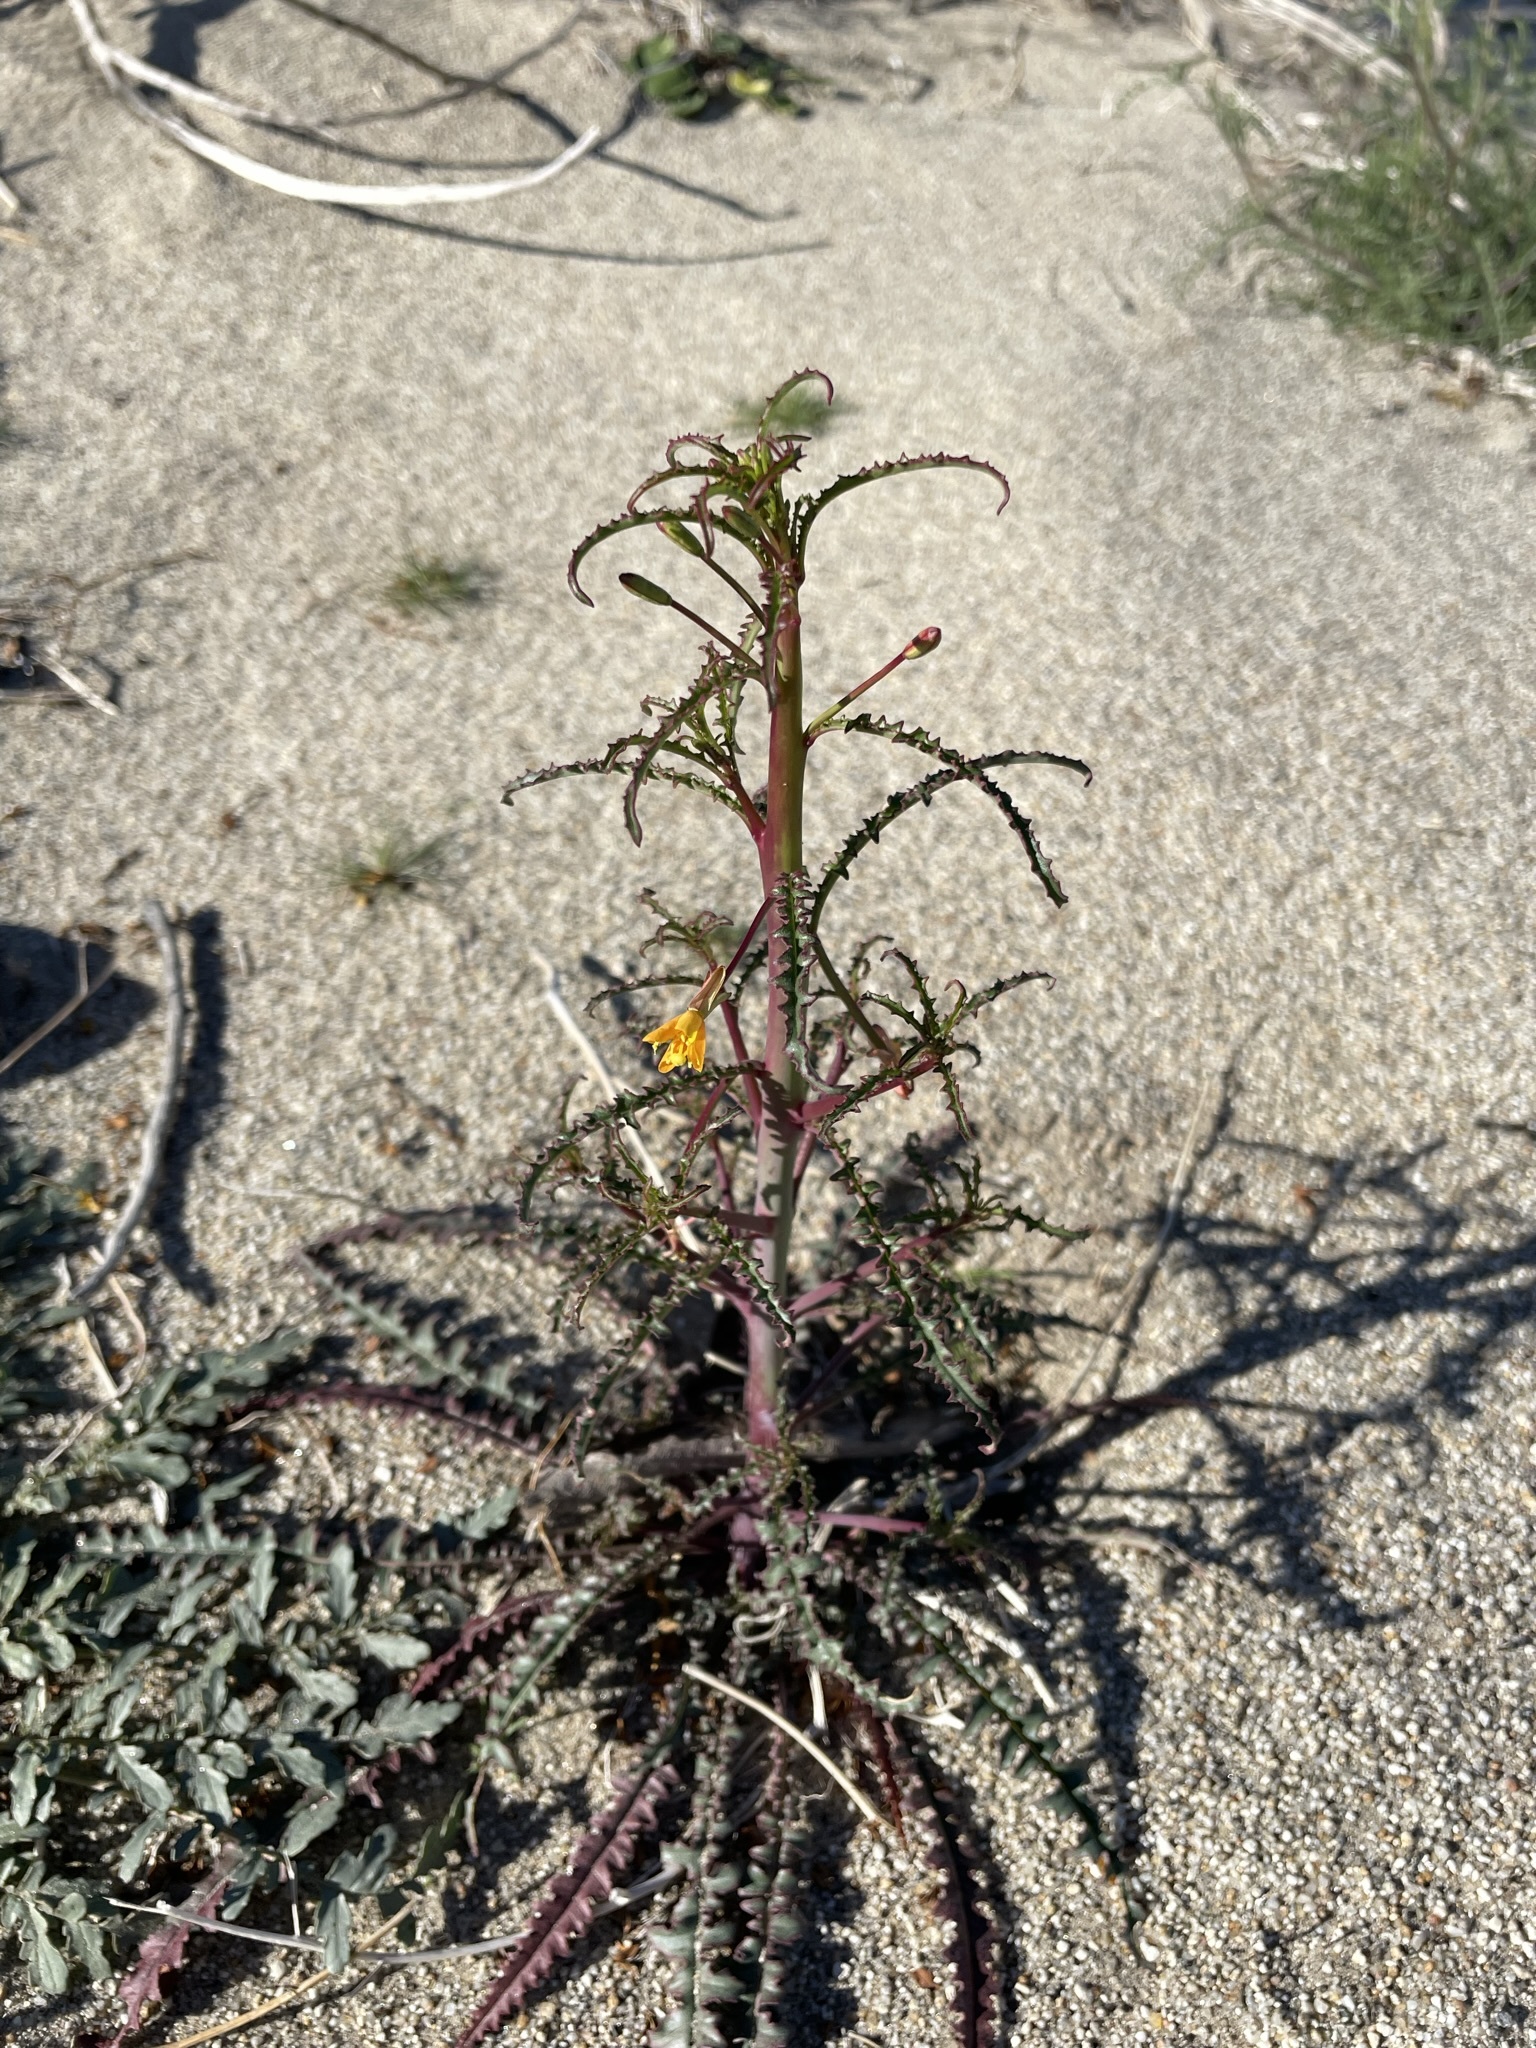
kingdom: Plantae
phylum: Tracheophyta
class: Magnoliopsida
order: Myrtales
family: Onagraceae
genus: Eulobus
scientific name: Eulobus californicus
